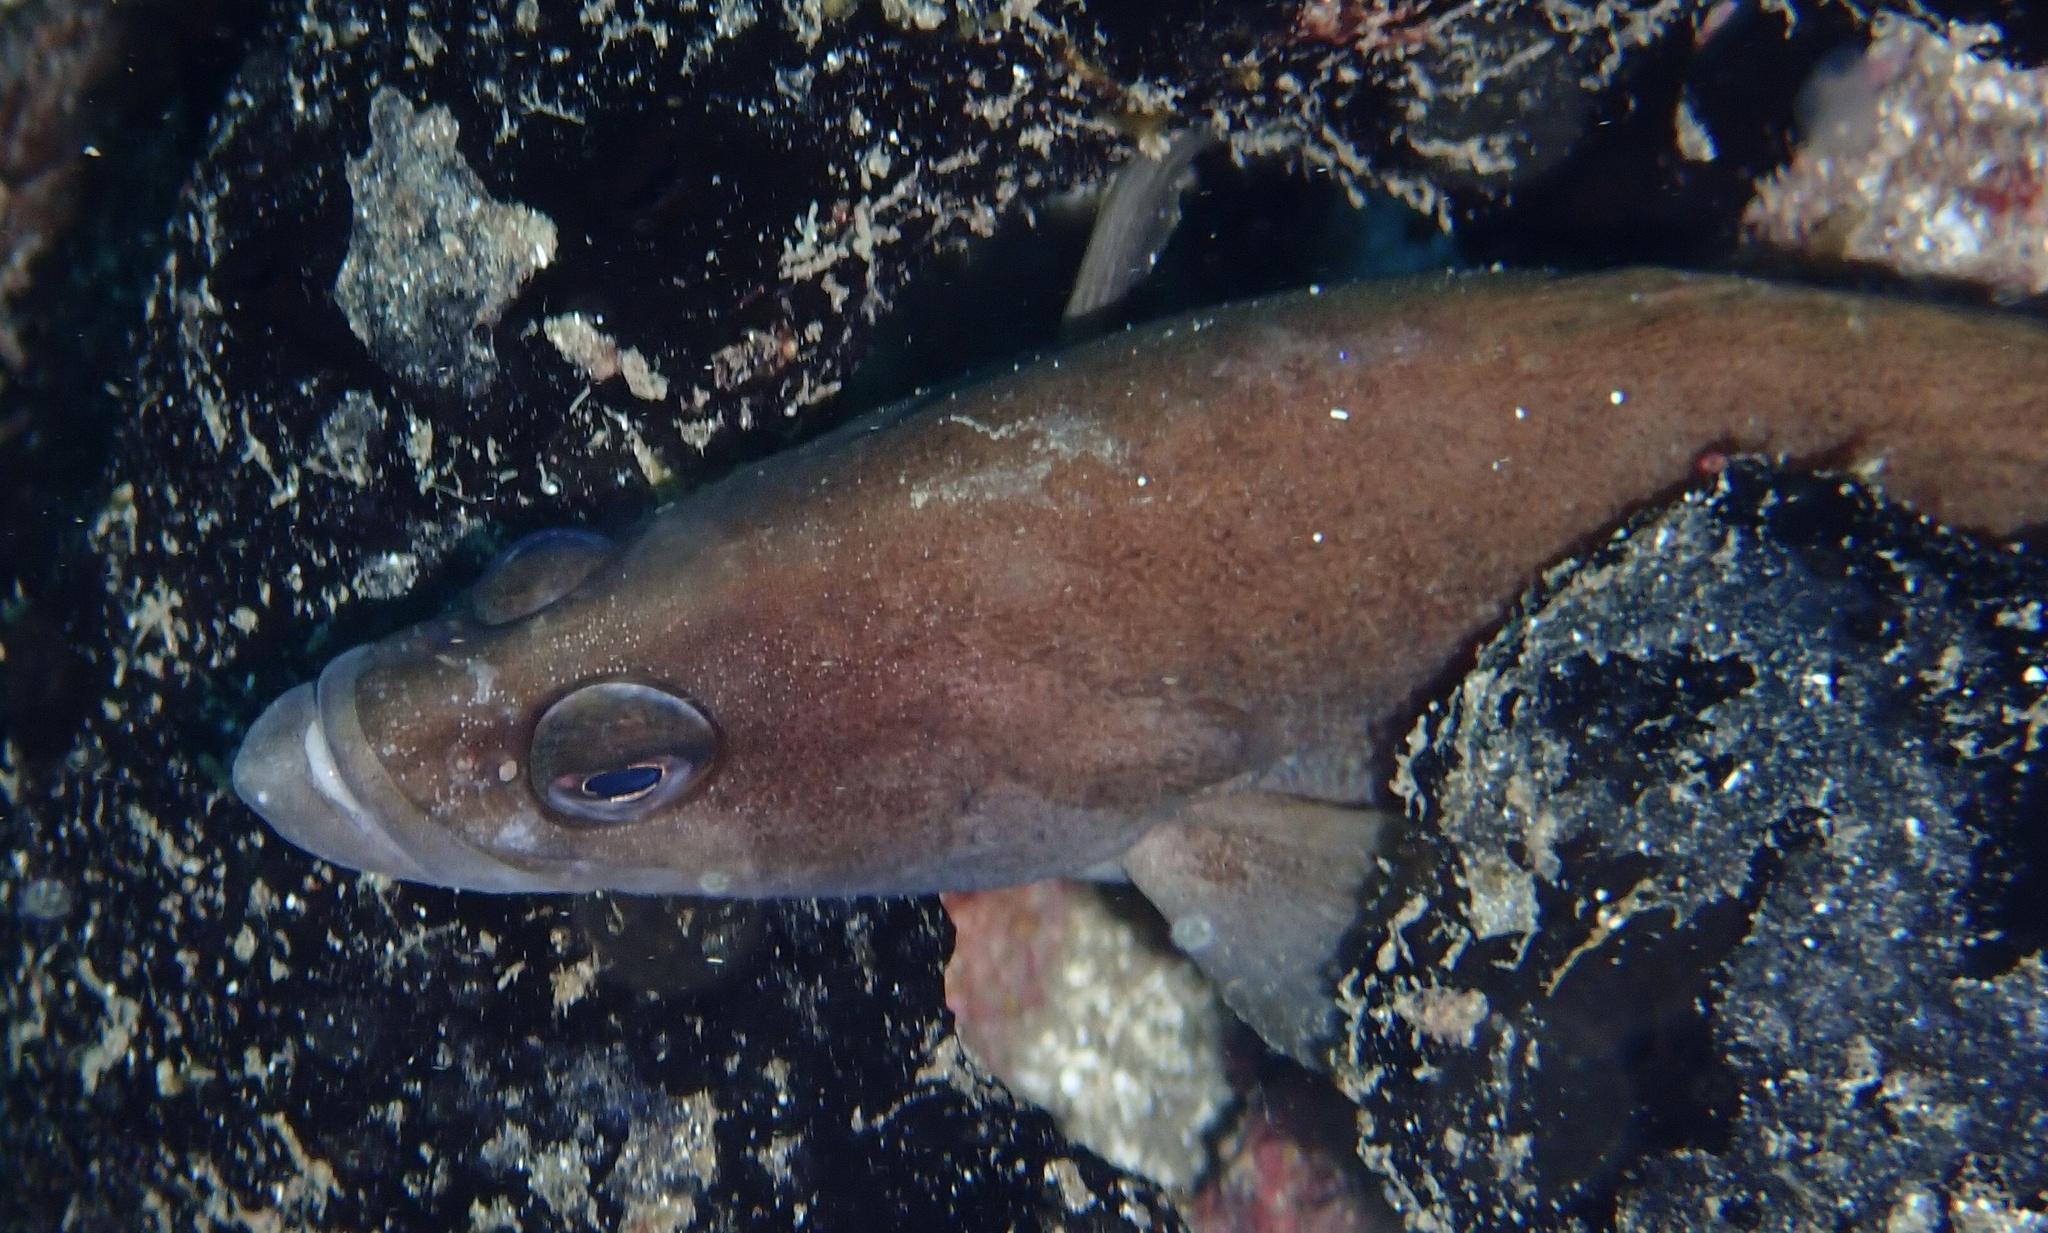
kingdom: Animalia
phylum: Chordata
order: Perciformes
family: Serranidae
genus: Rypticus
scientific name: Rypticus saponaceus
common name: Soapfish
